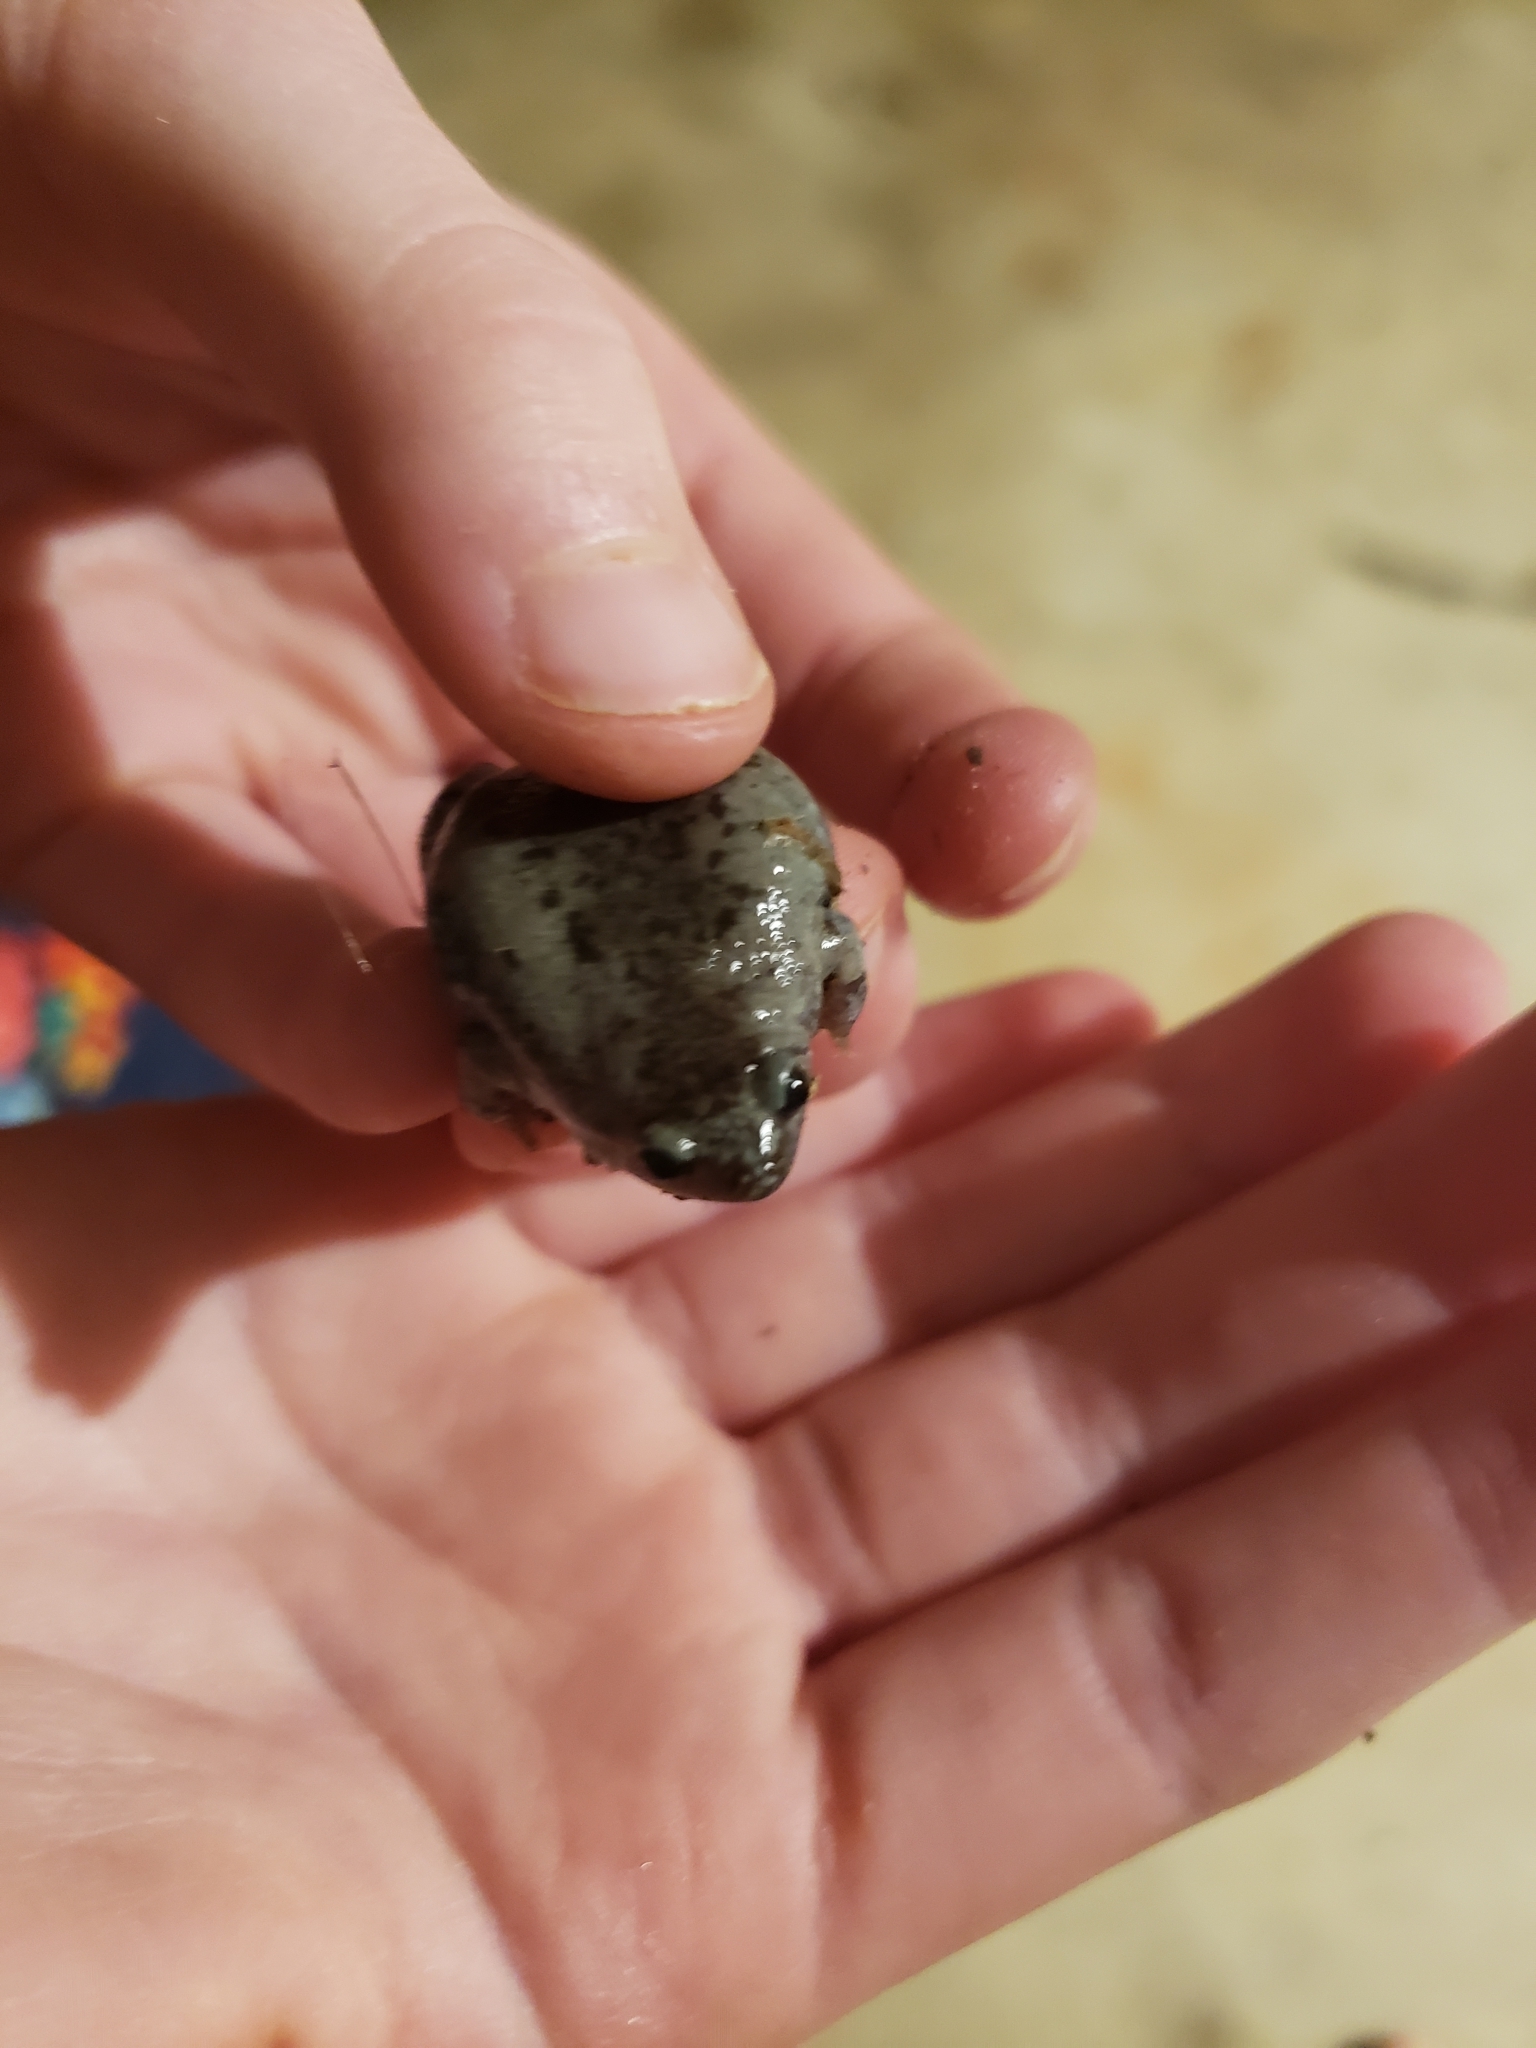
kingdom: Animalia
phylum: Chordata
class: Amphibia
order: Anura
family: Microhylidae
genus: Gastrophryne
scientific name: Gastrophryne carolinensis
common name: Eastern narrowmouth toad
